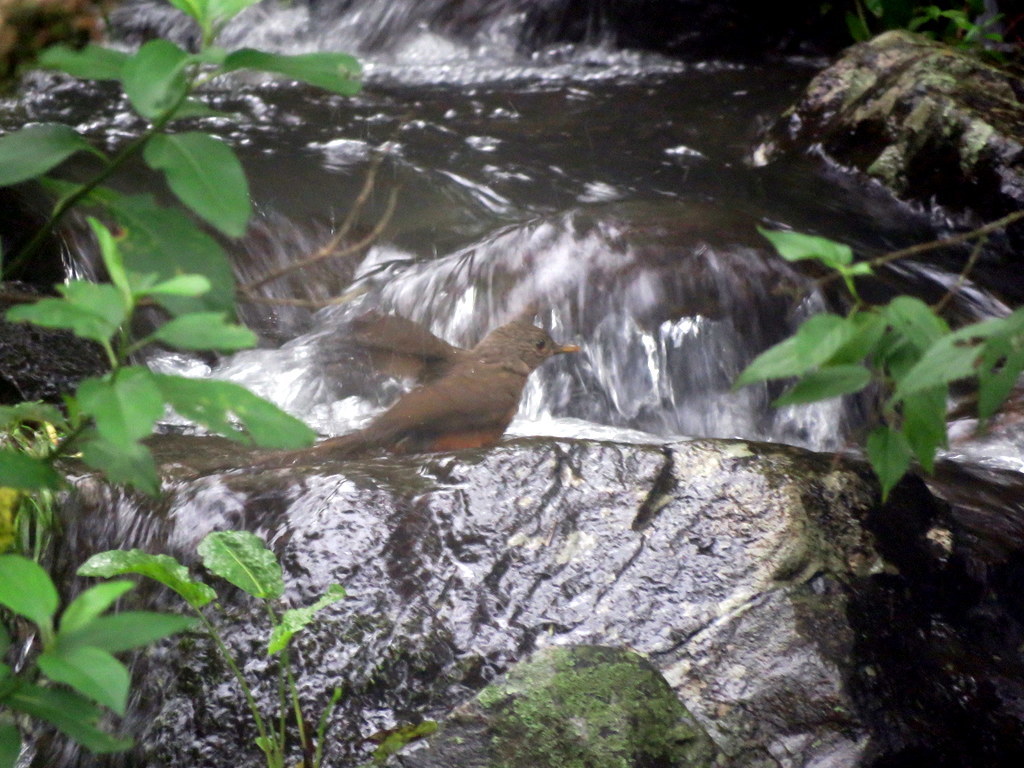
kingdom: Animalia
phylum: Chordata
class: Aves
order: Passeriformes
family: Turdidae
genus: Turdus
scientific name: Turdus rufiventris
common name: Rufous-bellied thrush
